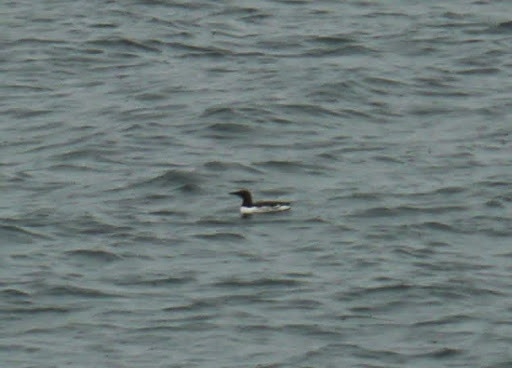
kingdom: Animalia
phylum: Chordata
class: Aves
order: Charadriiformes
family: Alcidae
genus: Uria
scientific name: Uria aalge
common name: Common murre
